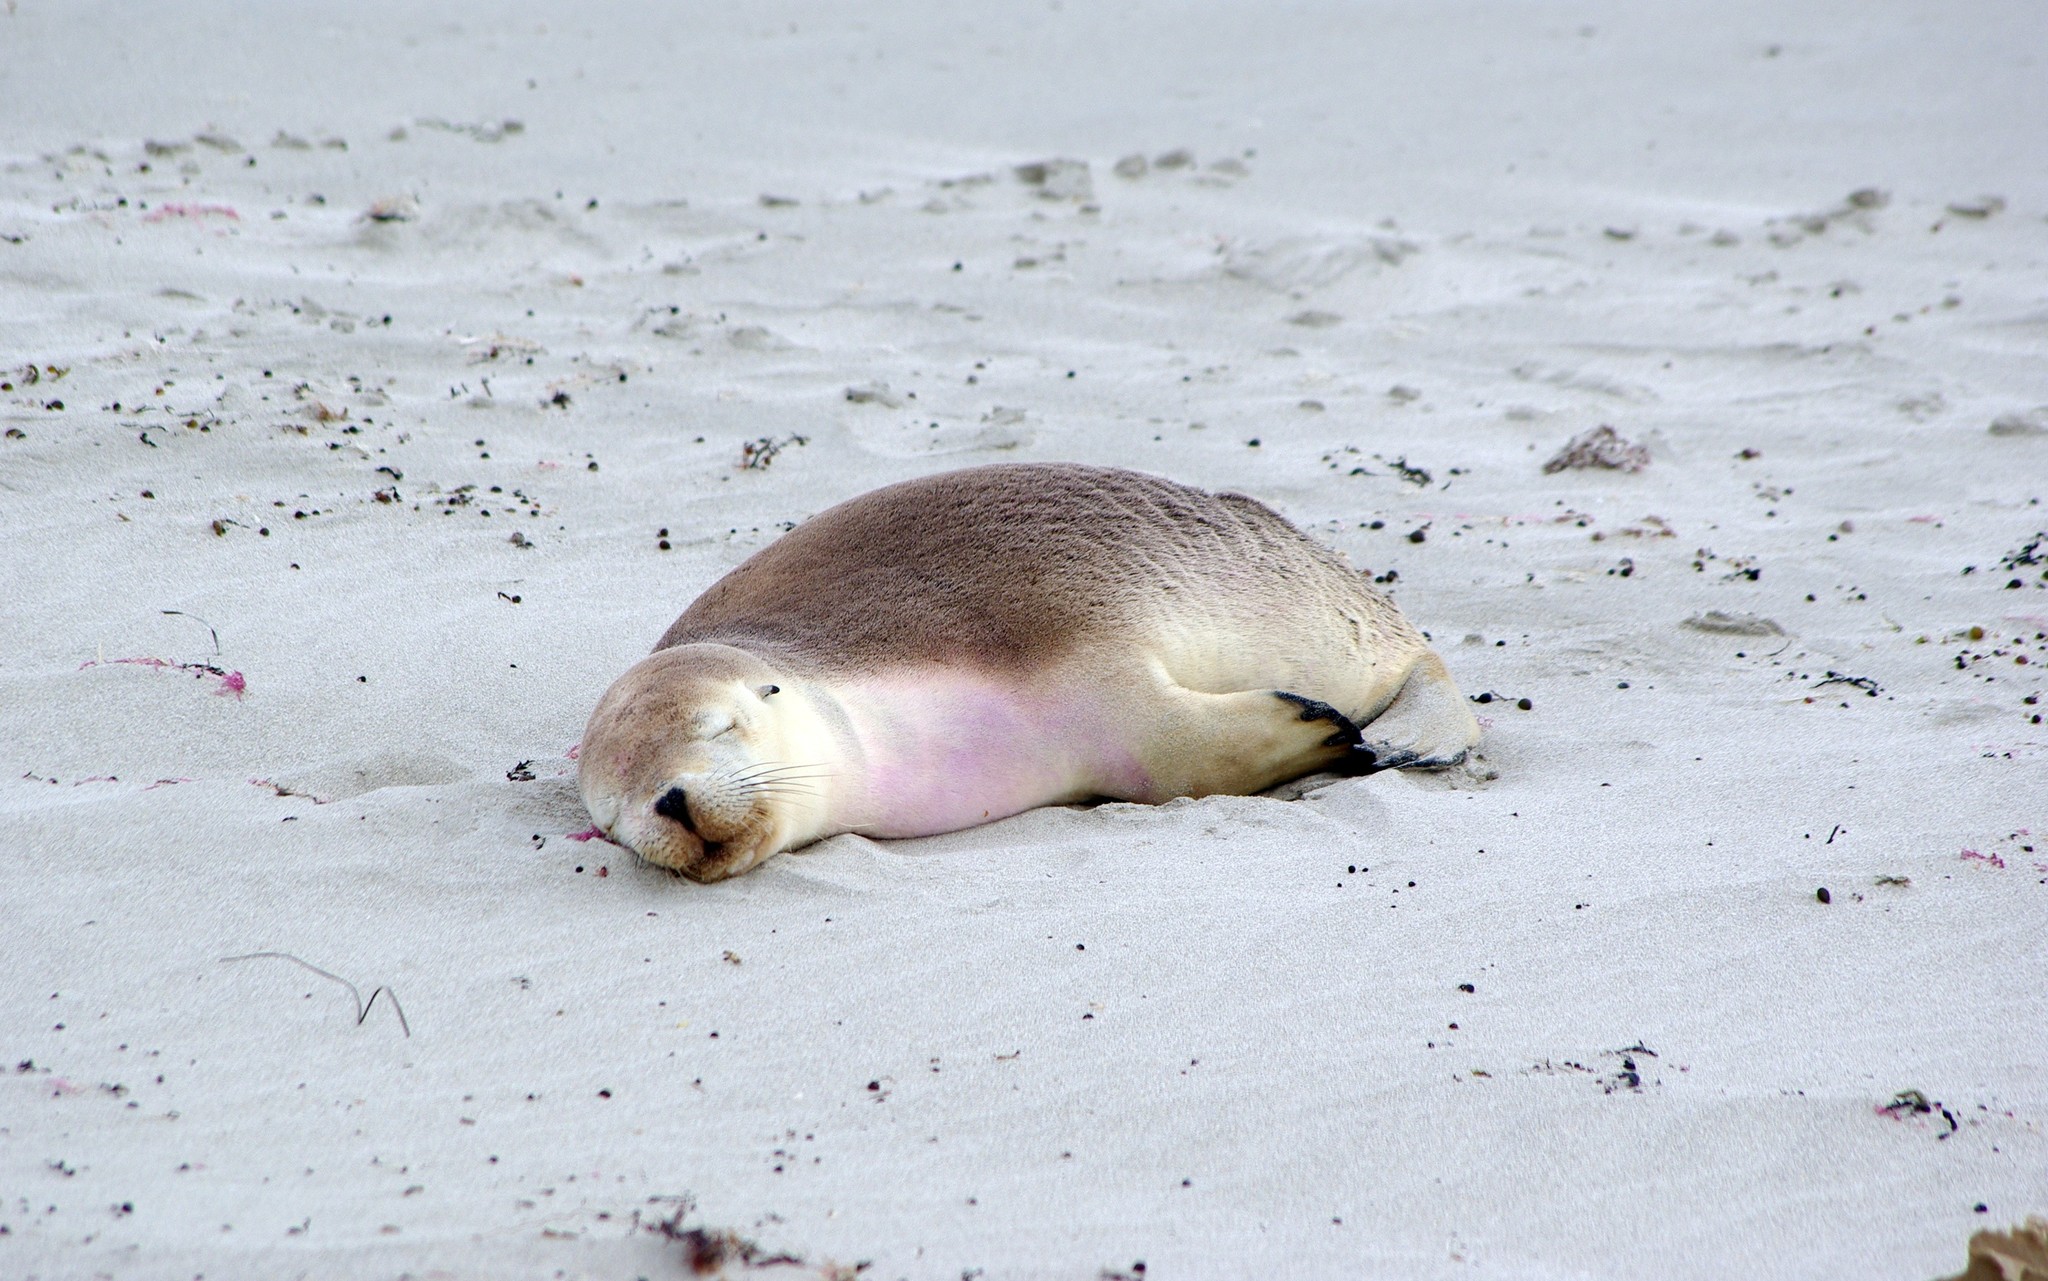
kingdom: Animalia
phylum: Chordata
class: Mammalia
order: Carnivora
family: Otariidae
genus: Neophoca
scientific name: Neophoca cinerea
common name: Australian sea lion
